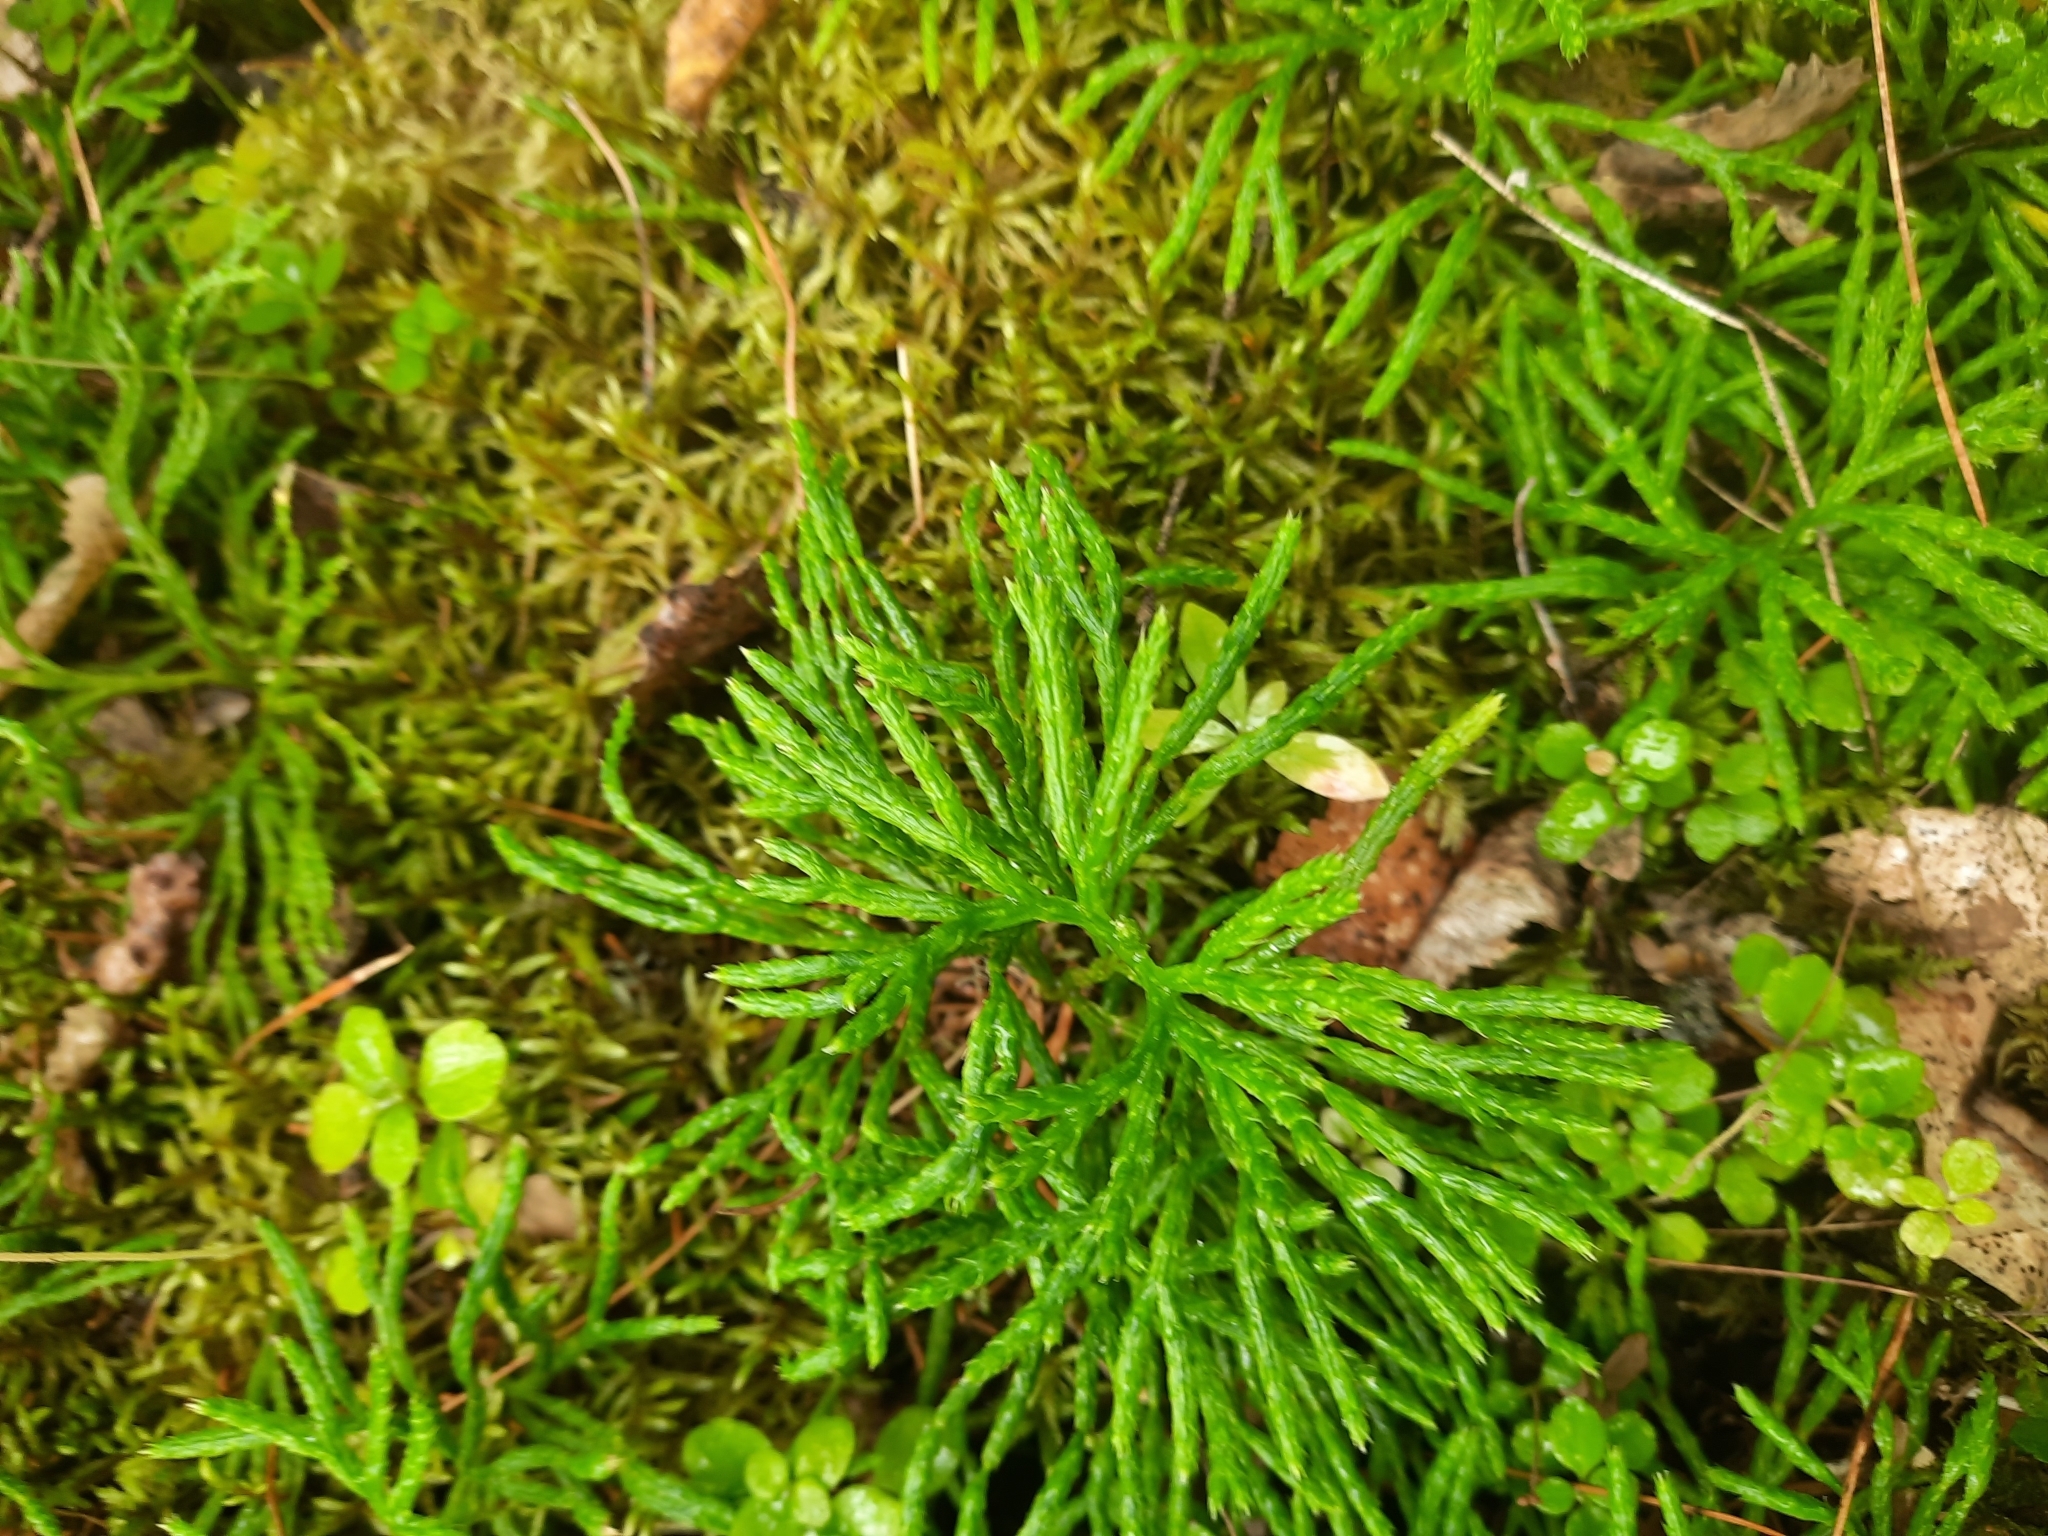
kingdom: Plantae
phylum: Tracheophyta
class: Lycopodiopsida
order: Lycopodiales
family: Lycopodiaceae
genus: Diphasiastrum
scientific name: Diphasiastrum complanatum
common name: Northern running-pine
